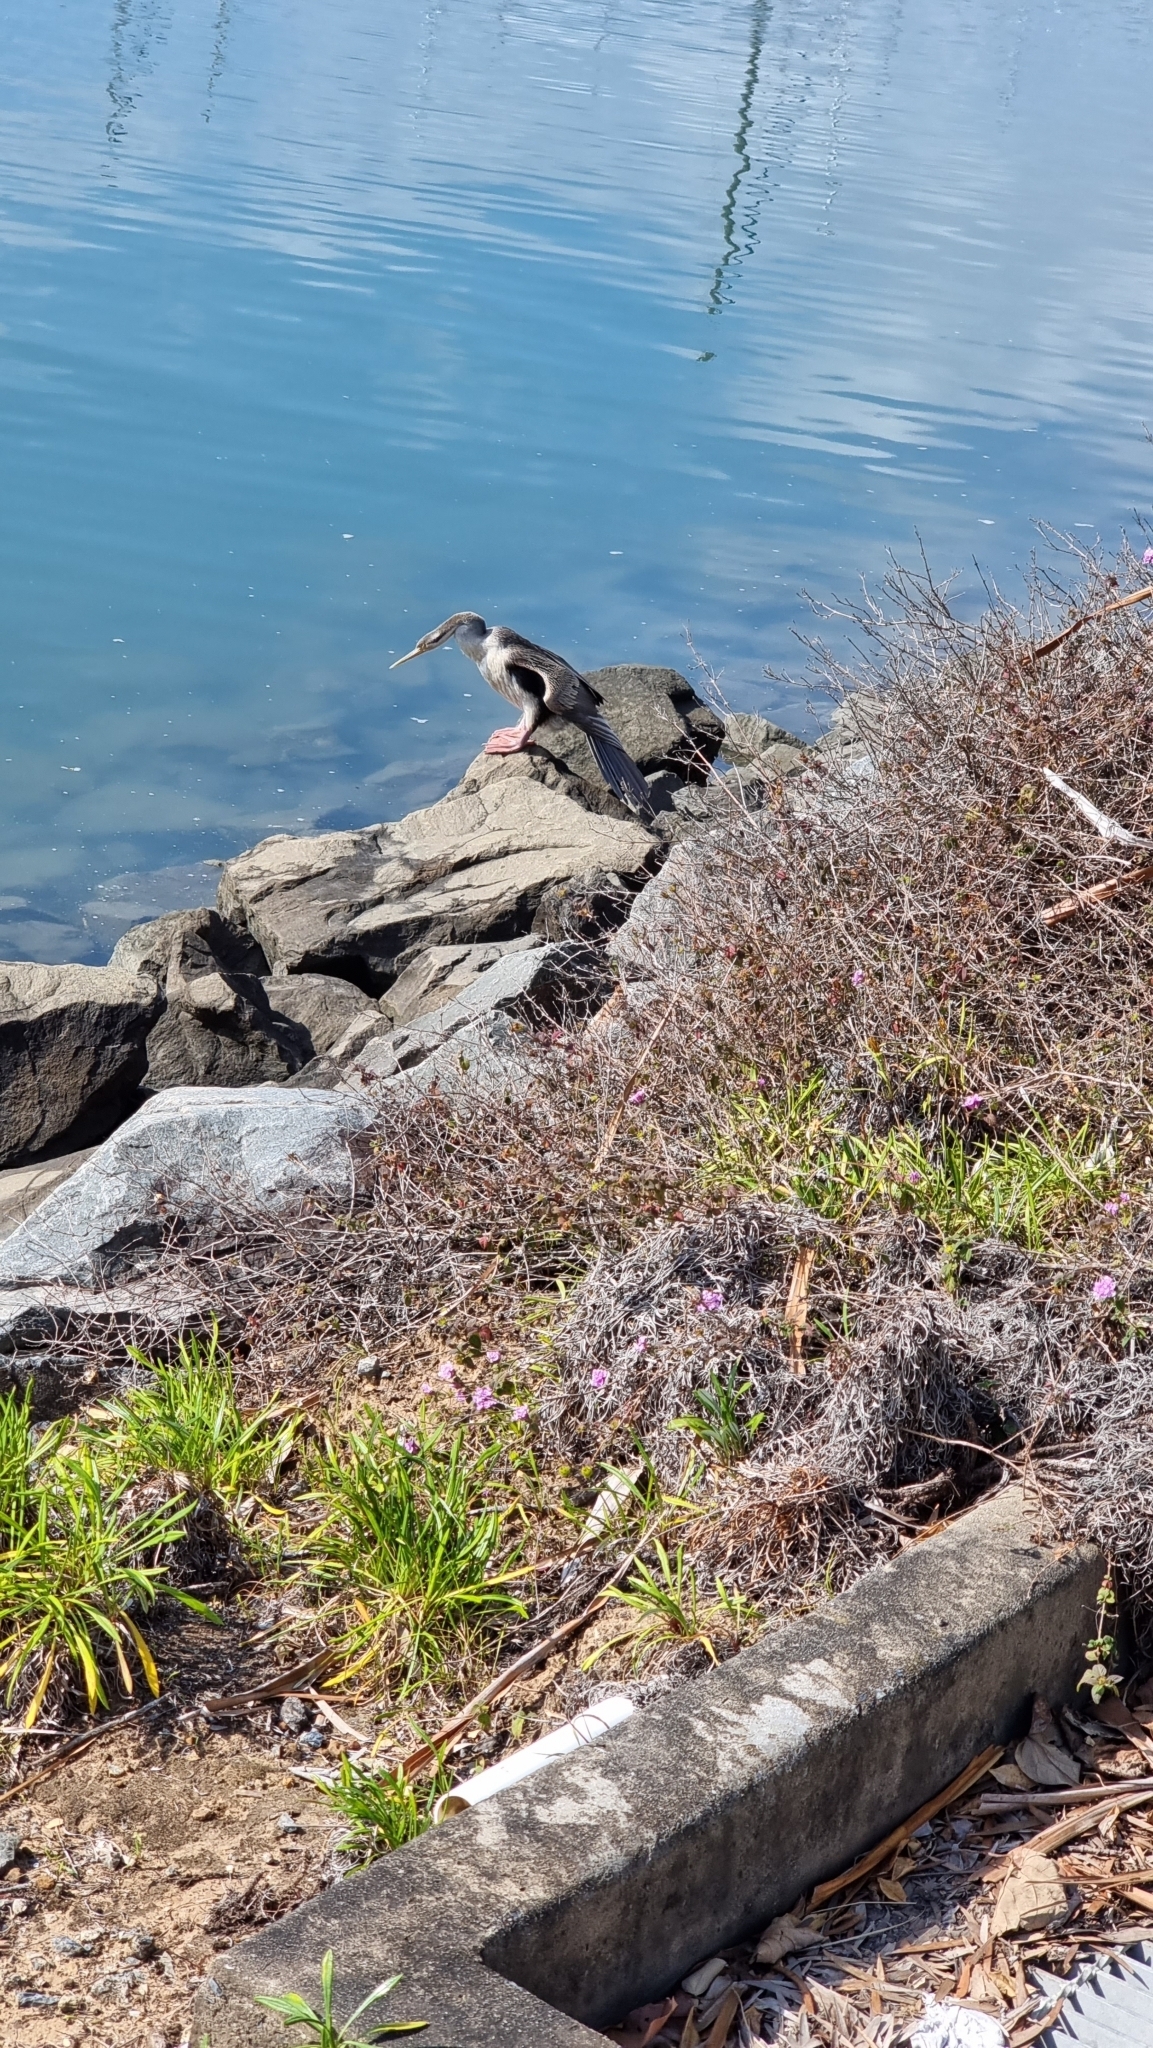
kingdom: Animalia
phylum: Chordata
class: Aves
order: Suliformes
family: Anhingidae
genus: Anhinga
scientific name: Anhinga novaehollandiae
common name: Australasian darter
